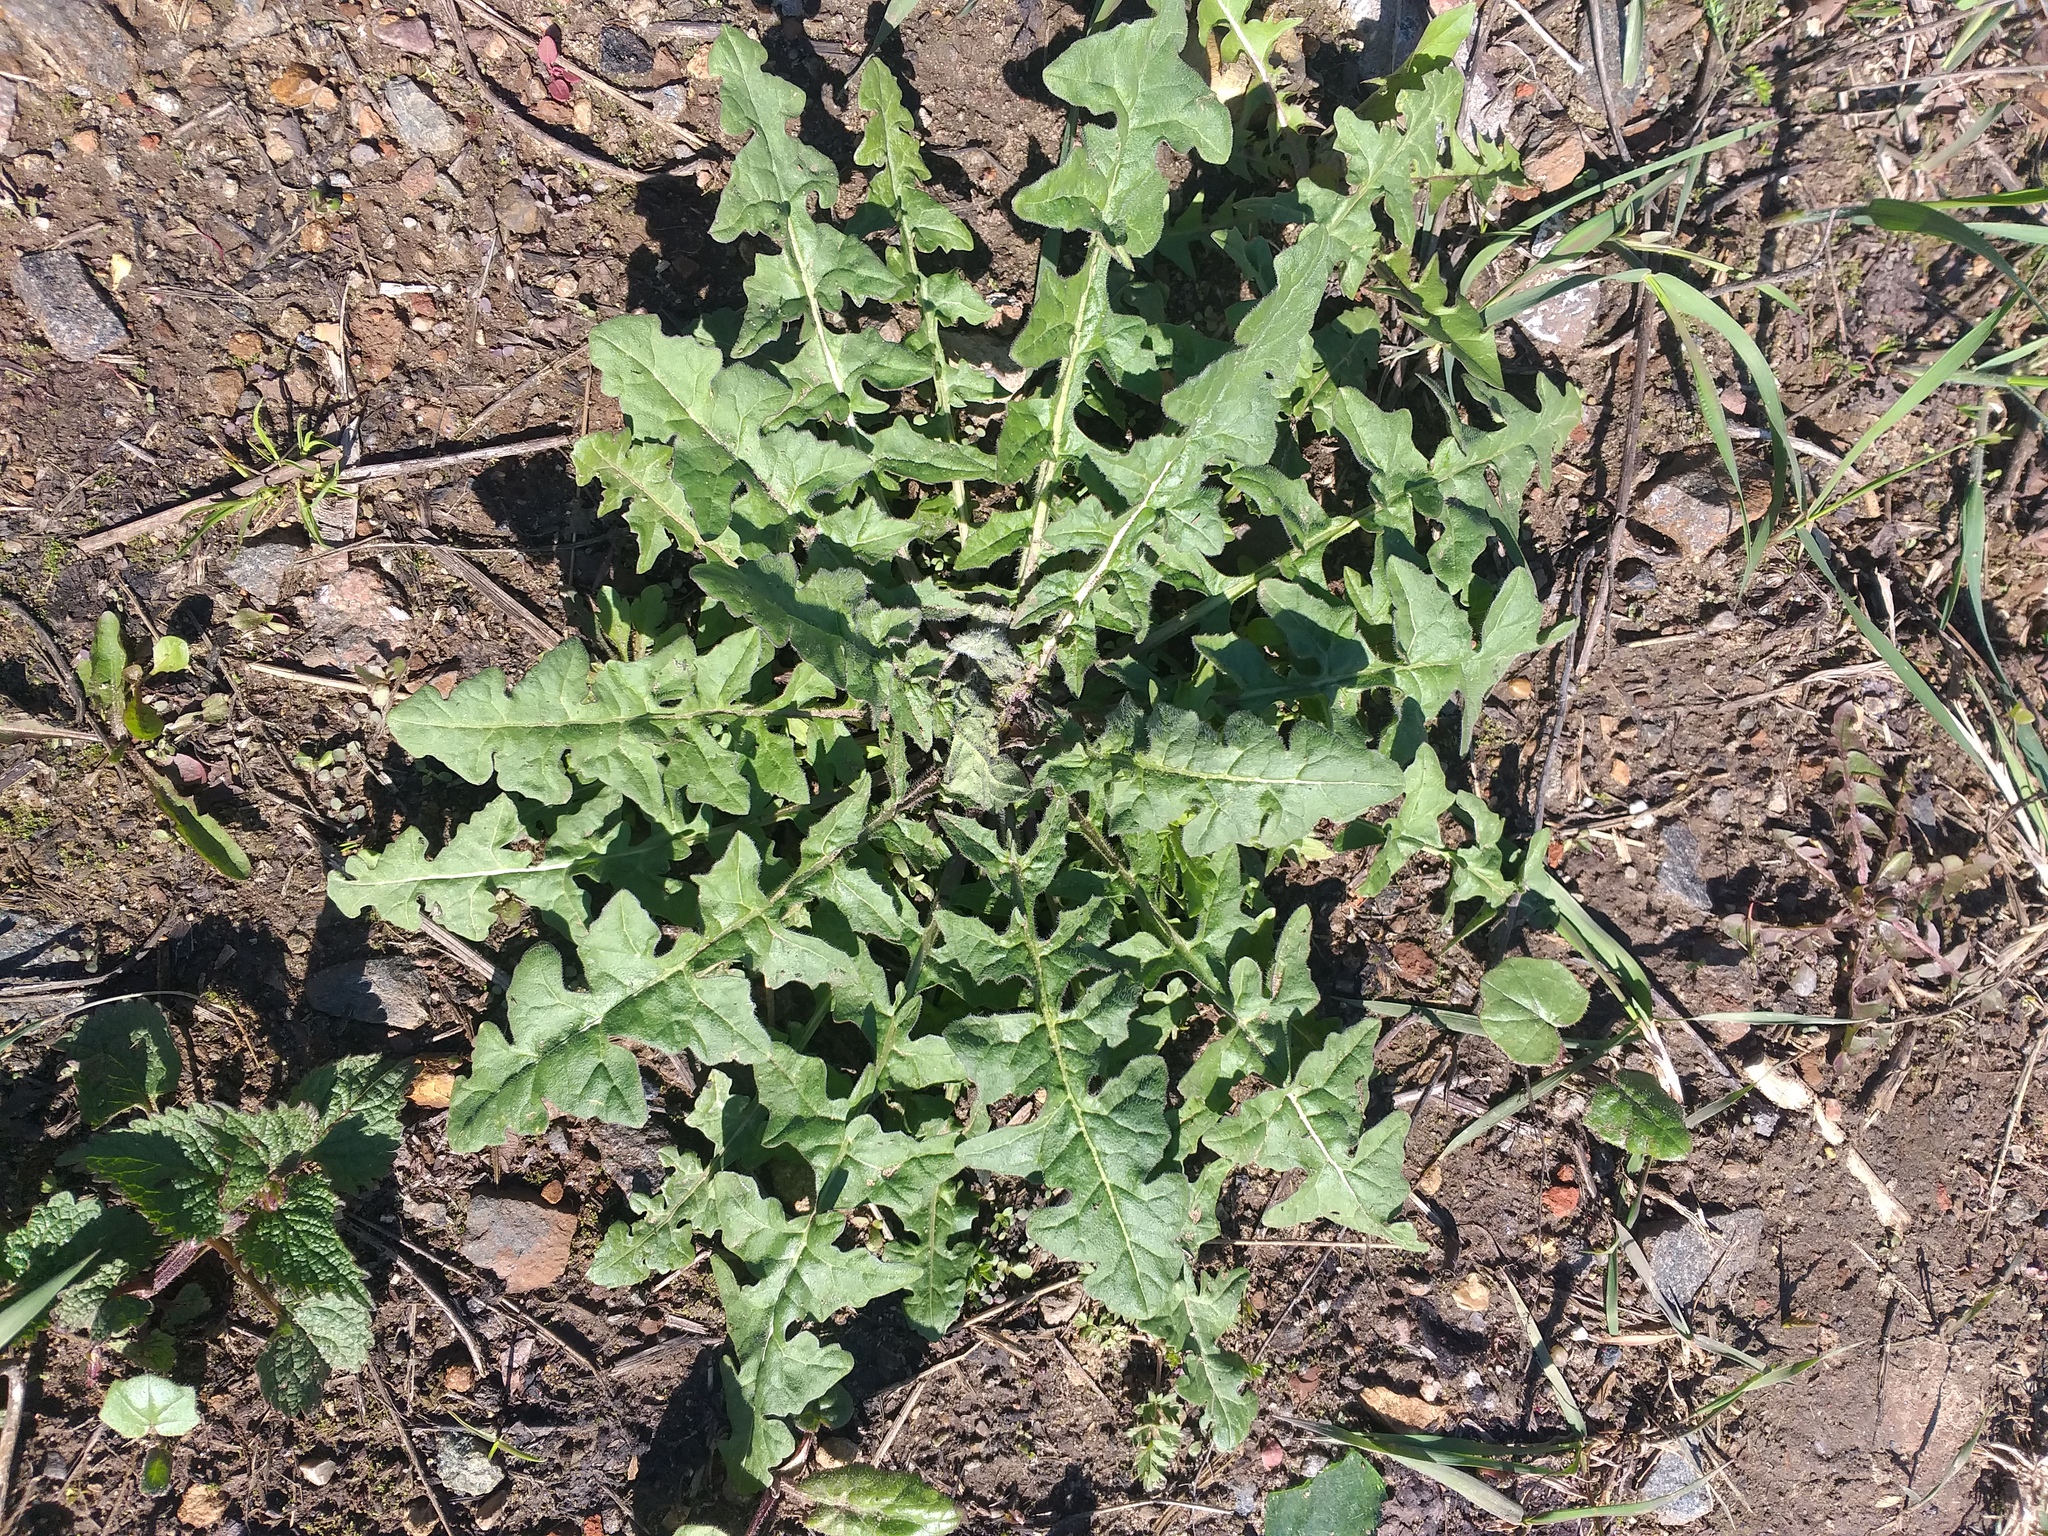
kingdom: Plantae
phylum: Tracheophyta
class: Magnoliopsida
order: Brassicales
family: Brassicaceae
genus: Sisymbrium
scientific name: Sisymbrium loeselii
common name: False london-rocket
